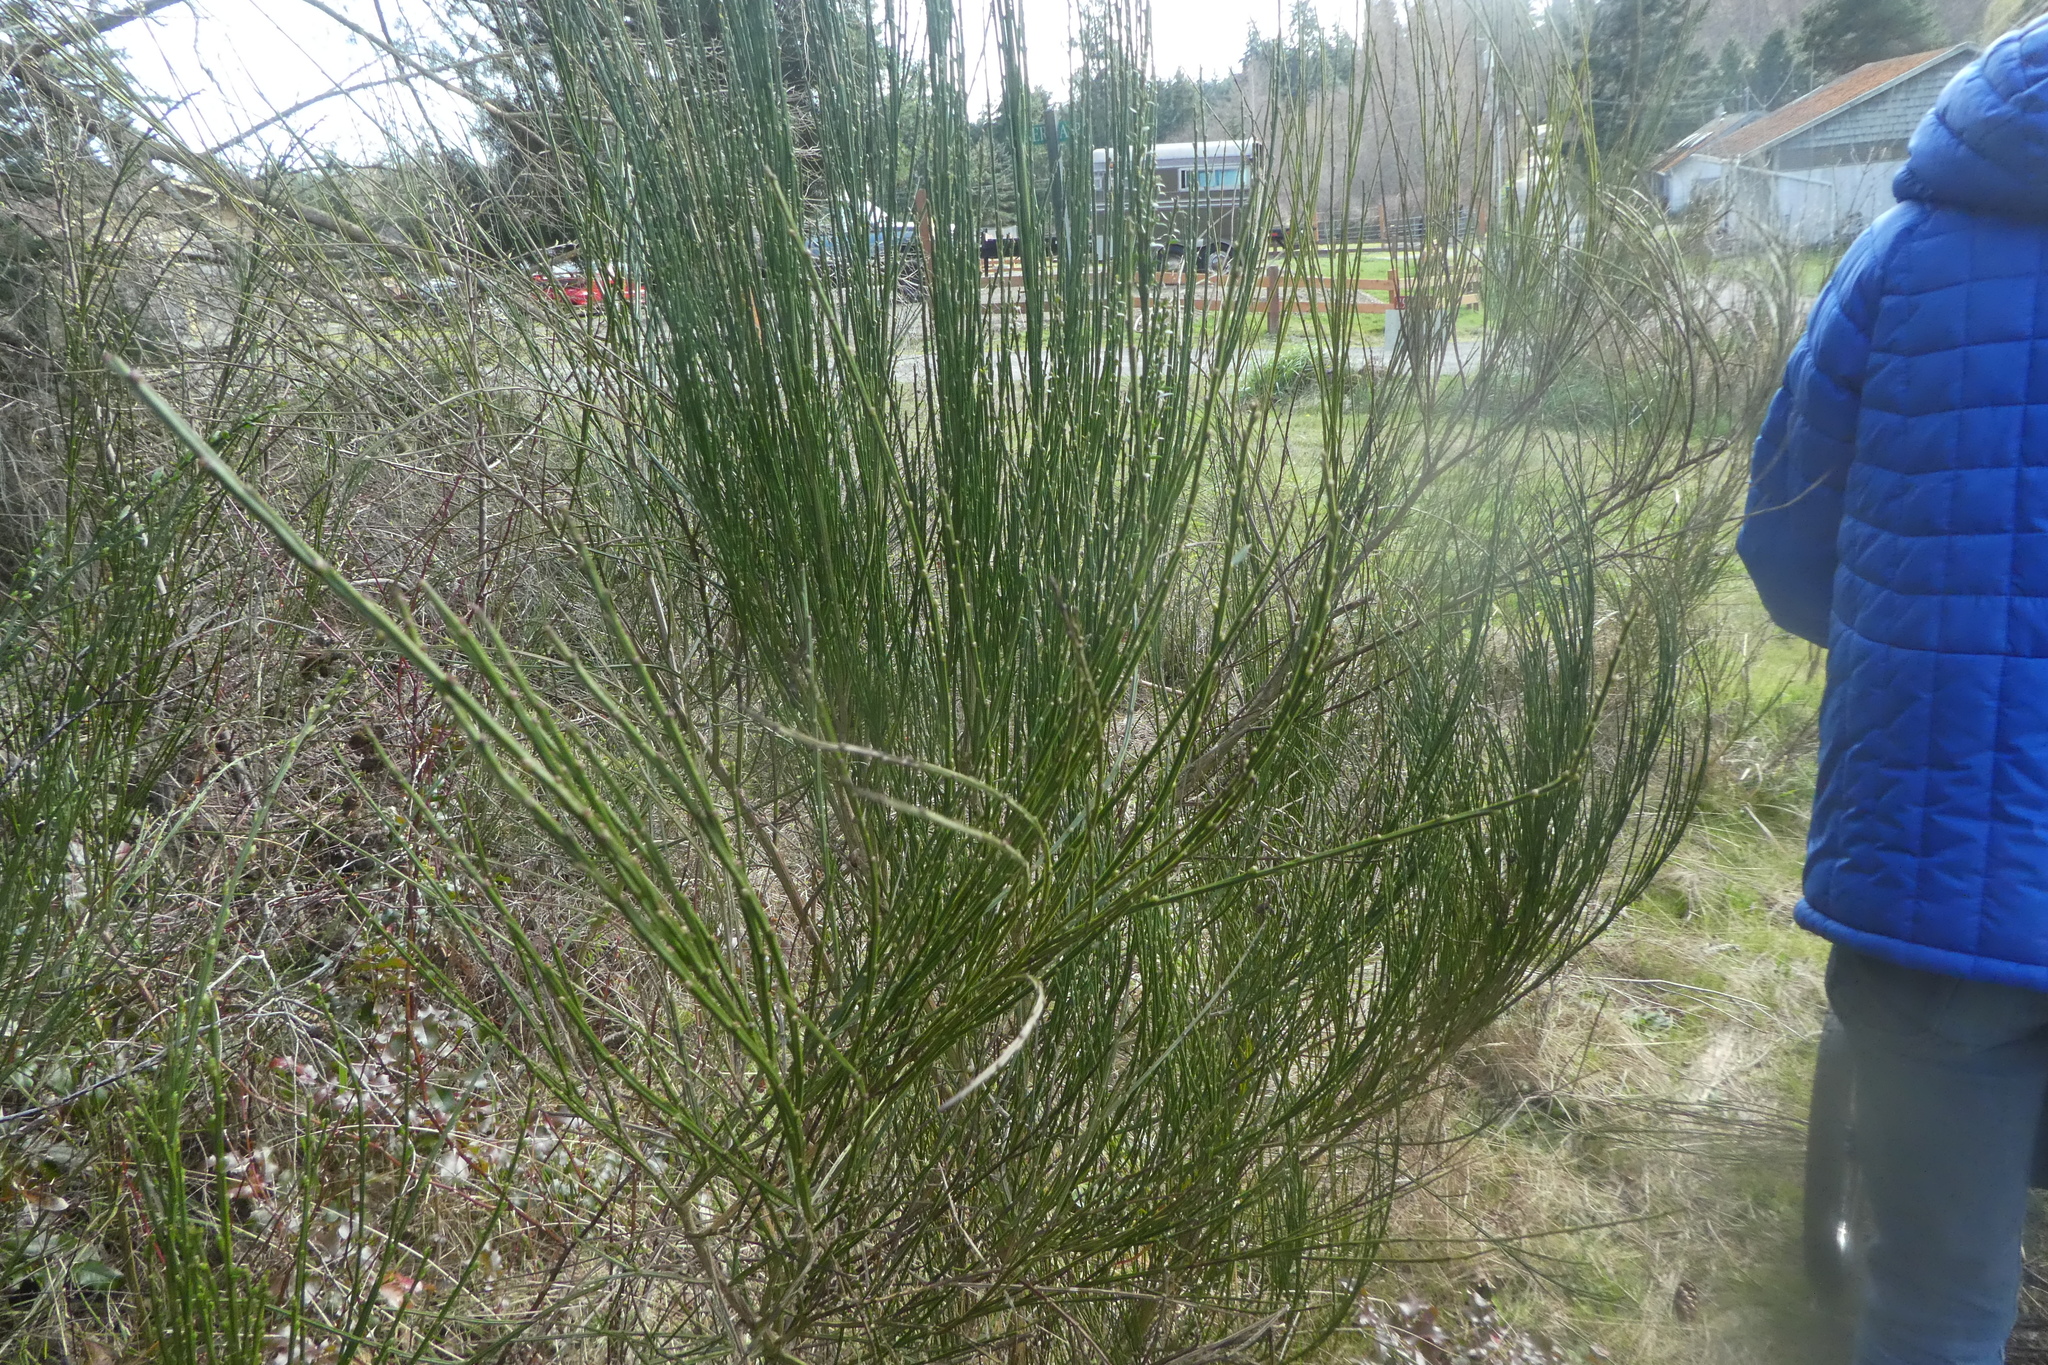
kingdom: Plantae
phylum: Tracheophyta
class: Magnoliopsida
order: Fabales
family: Fabaceae
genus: Cytisus
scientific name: Cytisus scoparius
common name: Scotch broom
